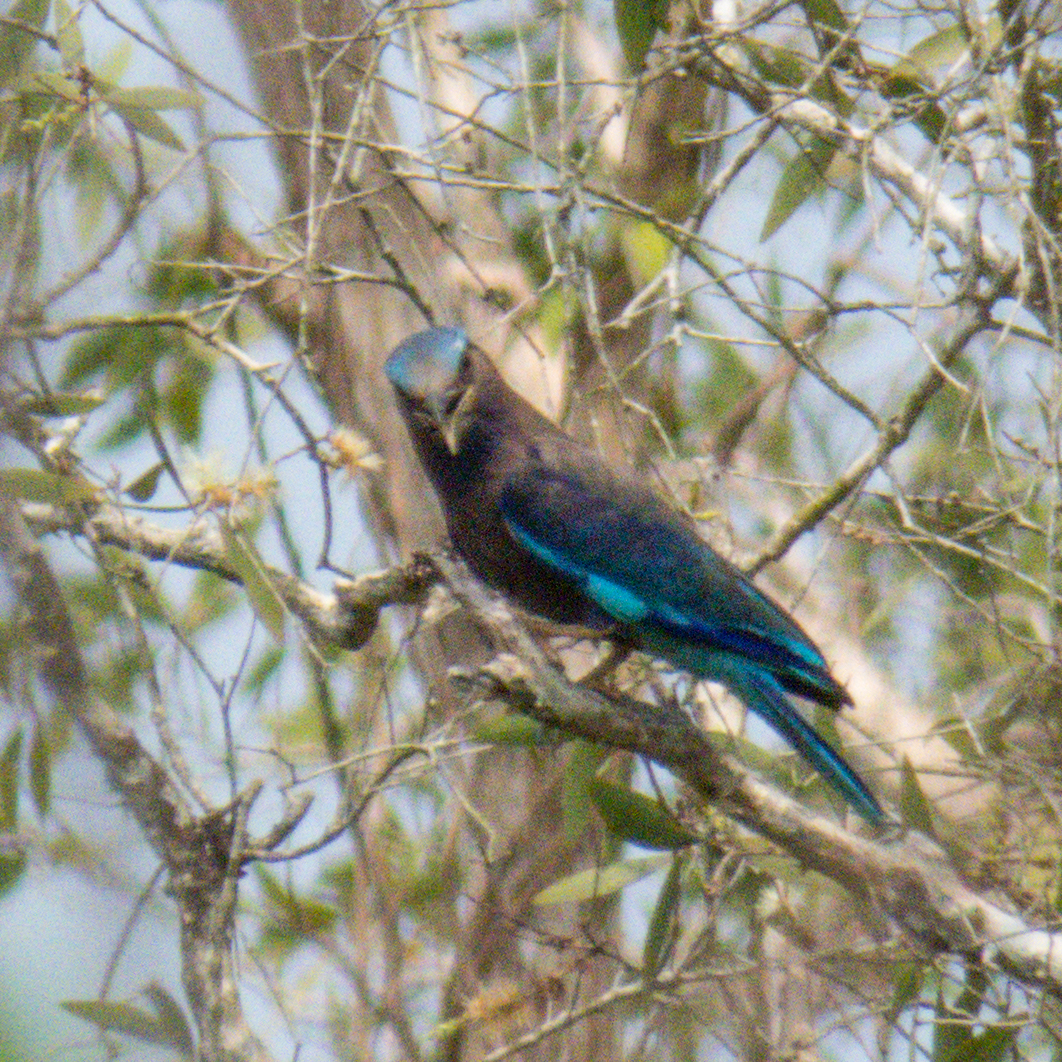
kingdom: Animalia
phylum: Chordata
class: Aves
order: Coraciiformes
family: Coraciidae
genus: Coracias
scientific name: Coracias affinis
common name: Indochinese roller
